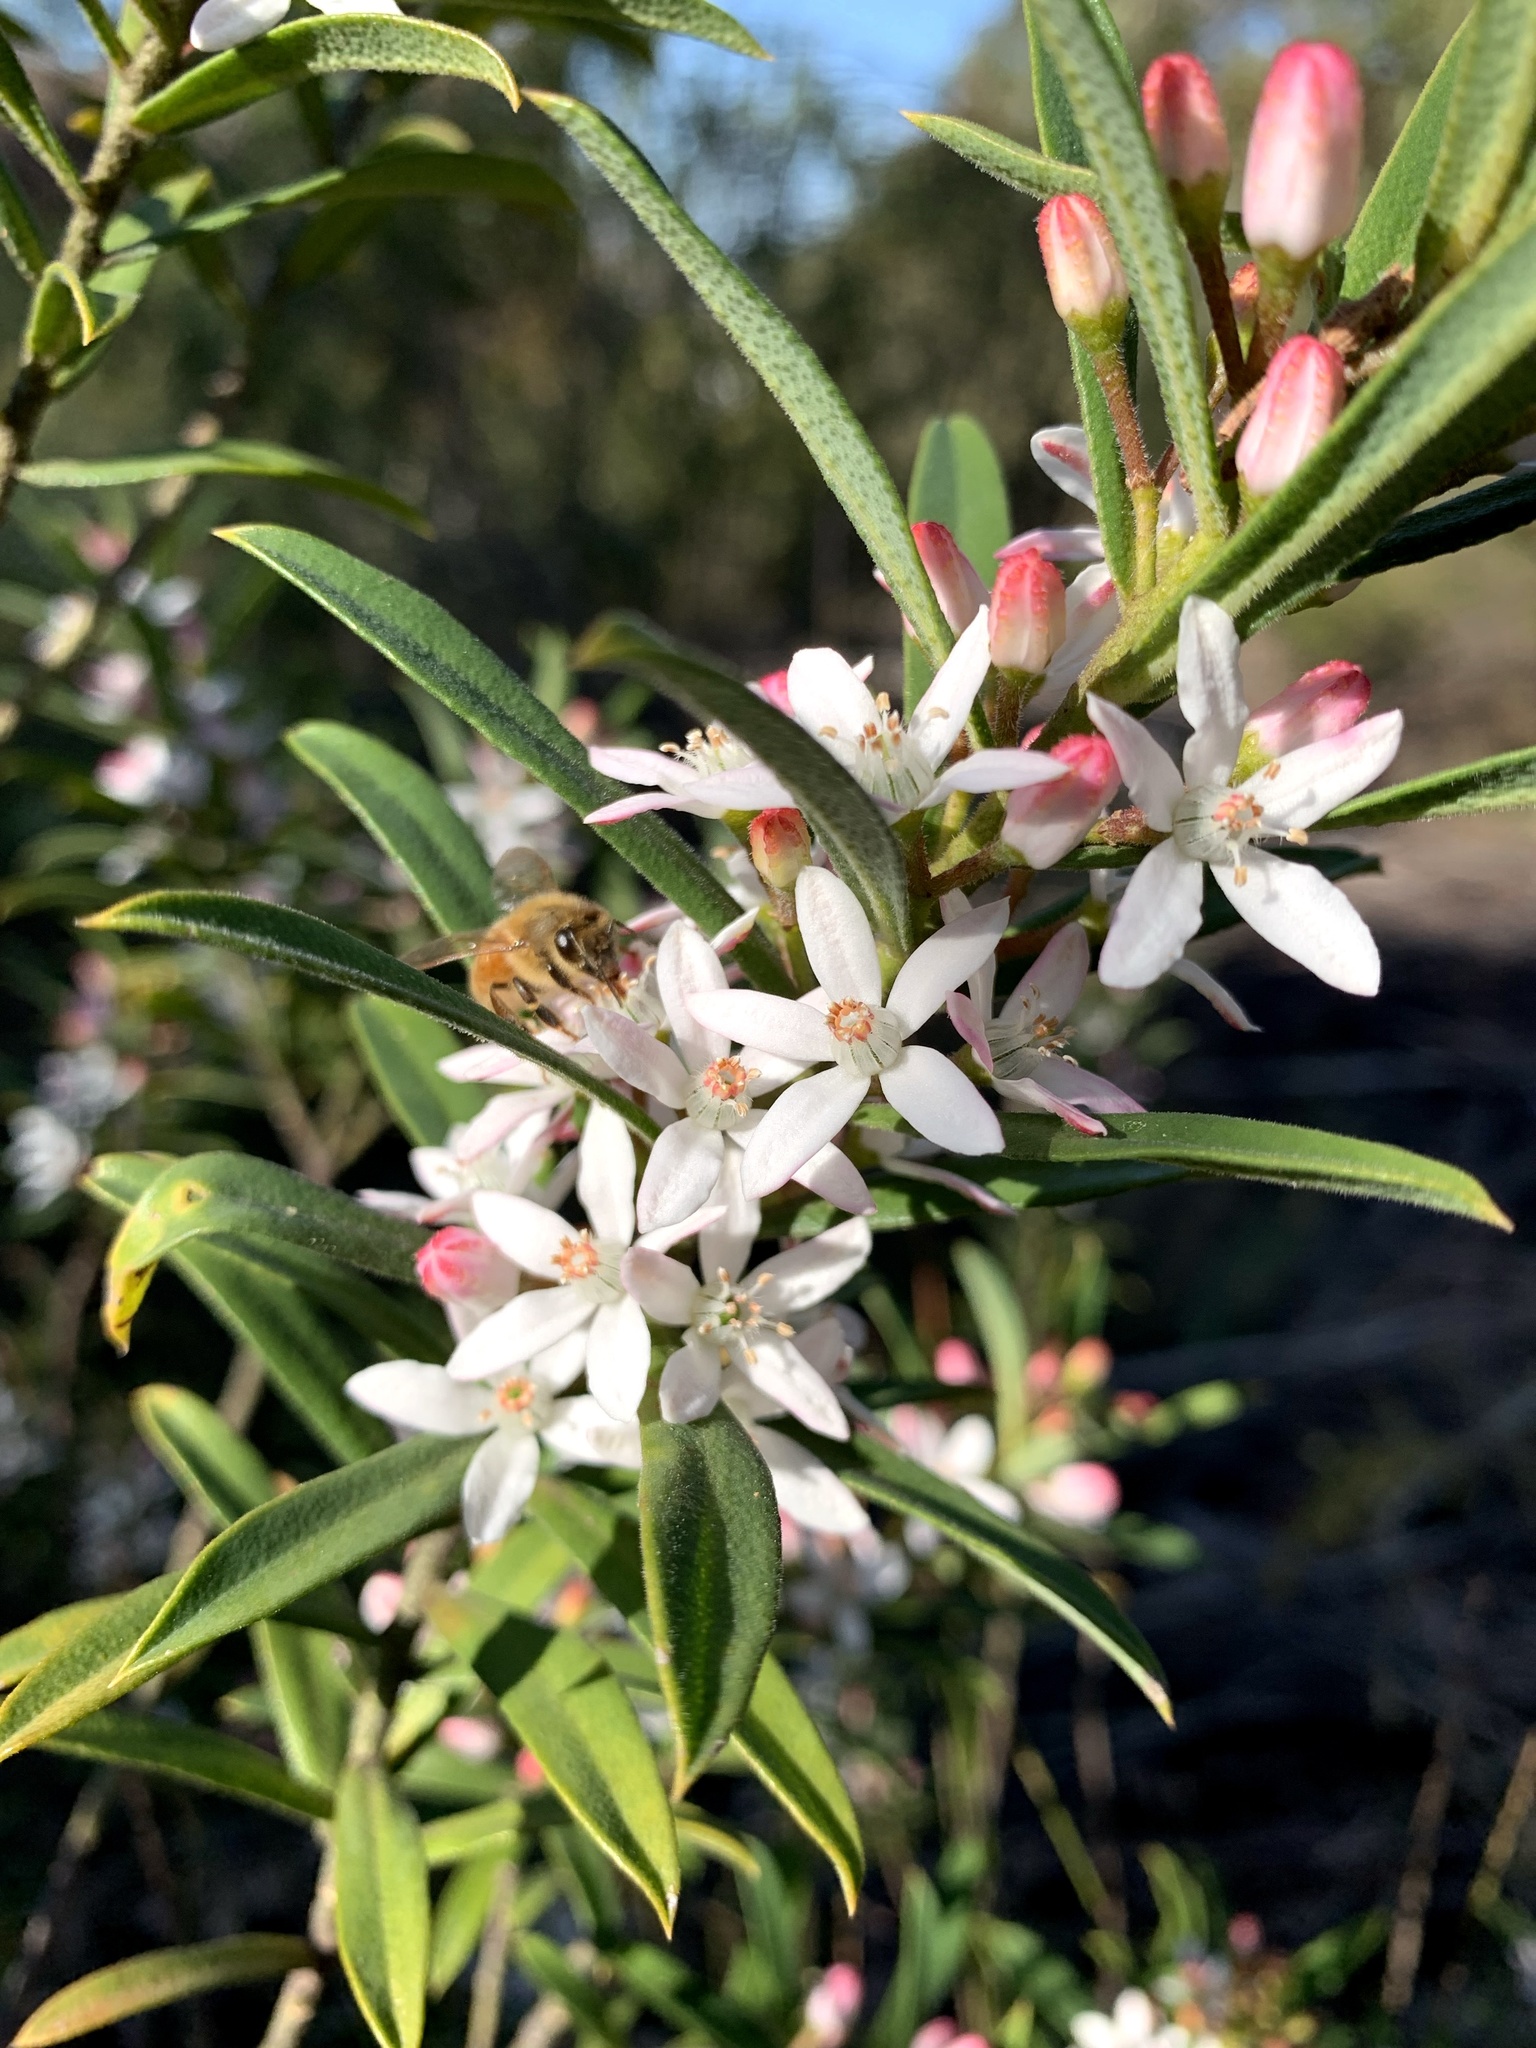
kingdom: Plantae
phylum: Tracheophyta
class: Magnoliopsida
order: Sapindales
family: Rutaceae
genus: Philotheca
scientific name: Philotheca myoporoides
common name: Longleaf waxflower
